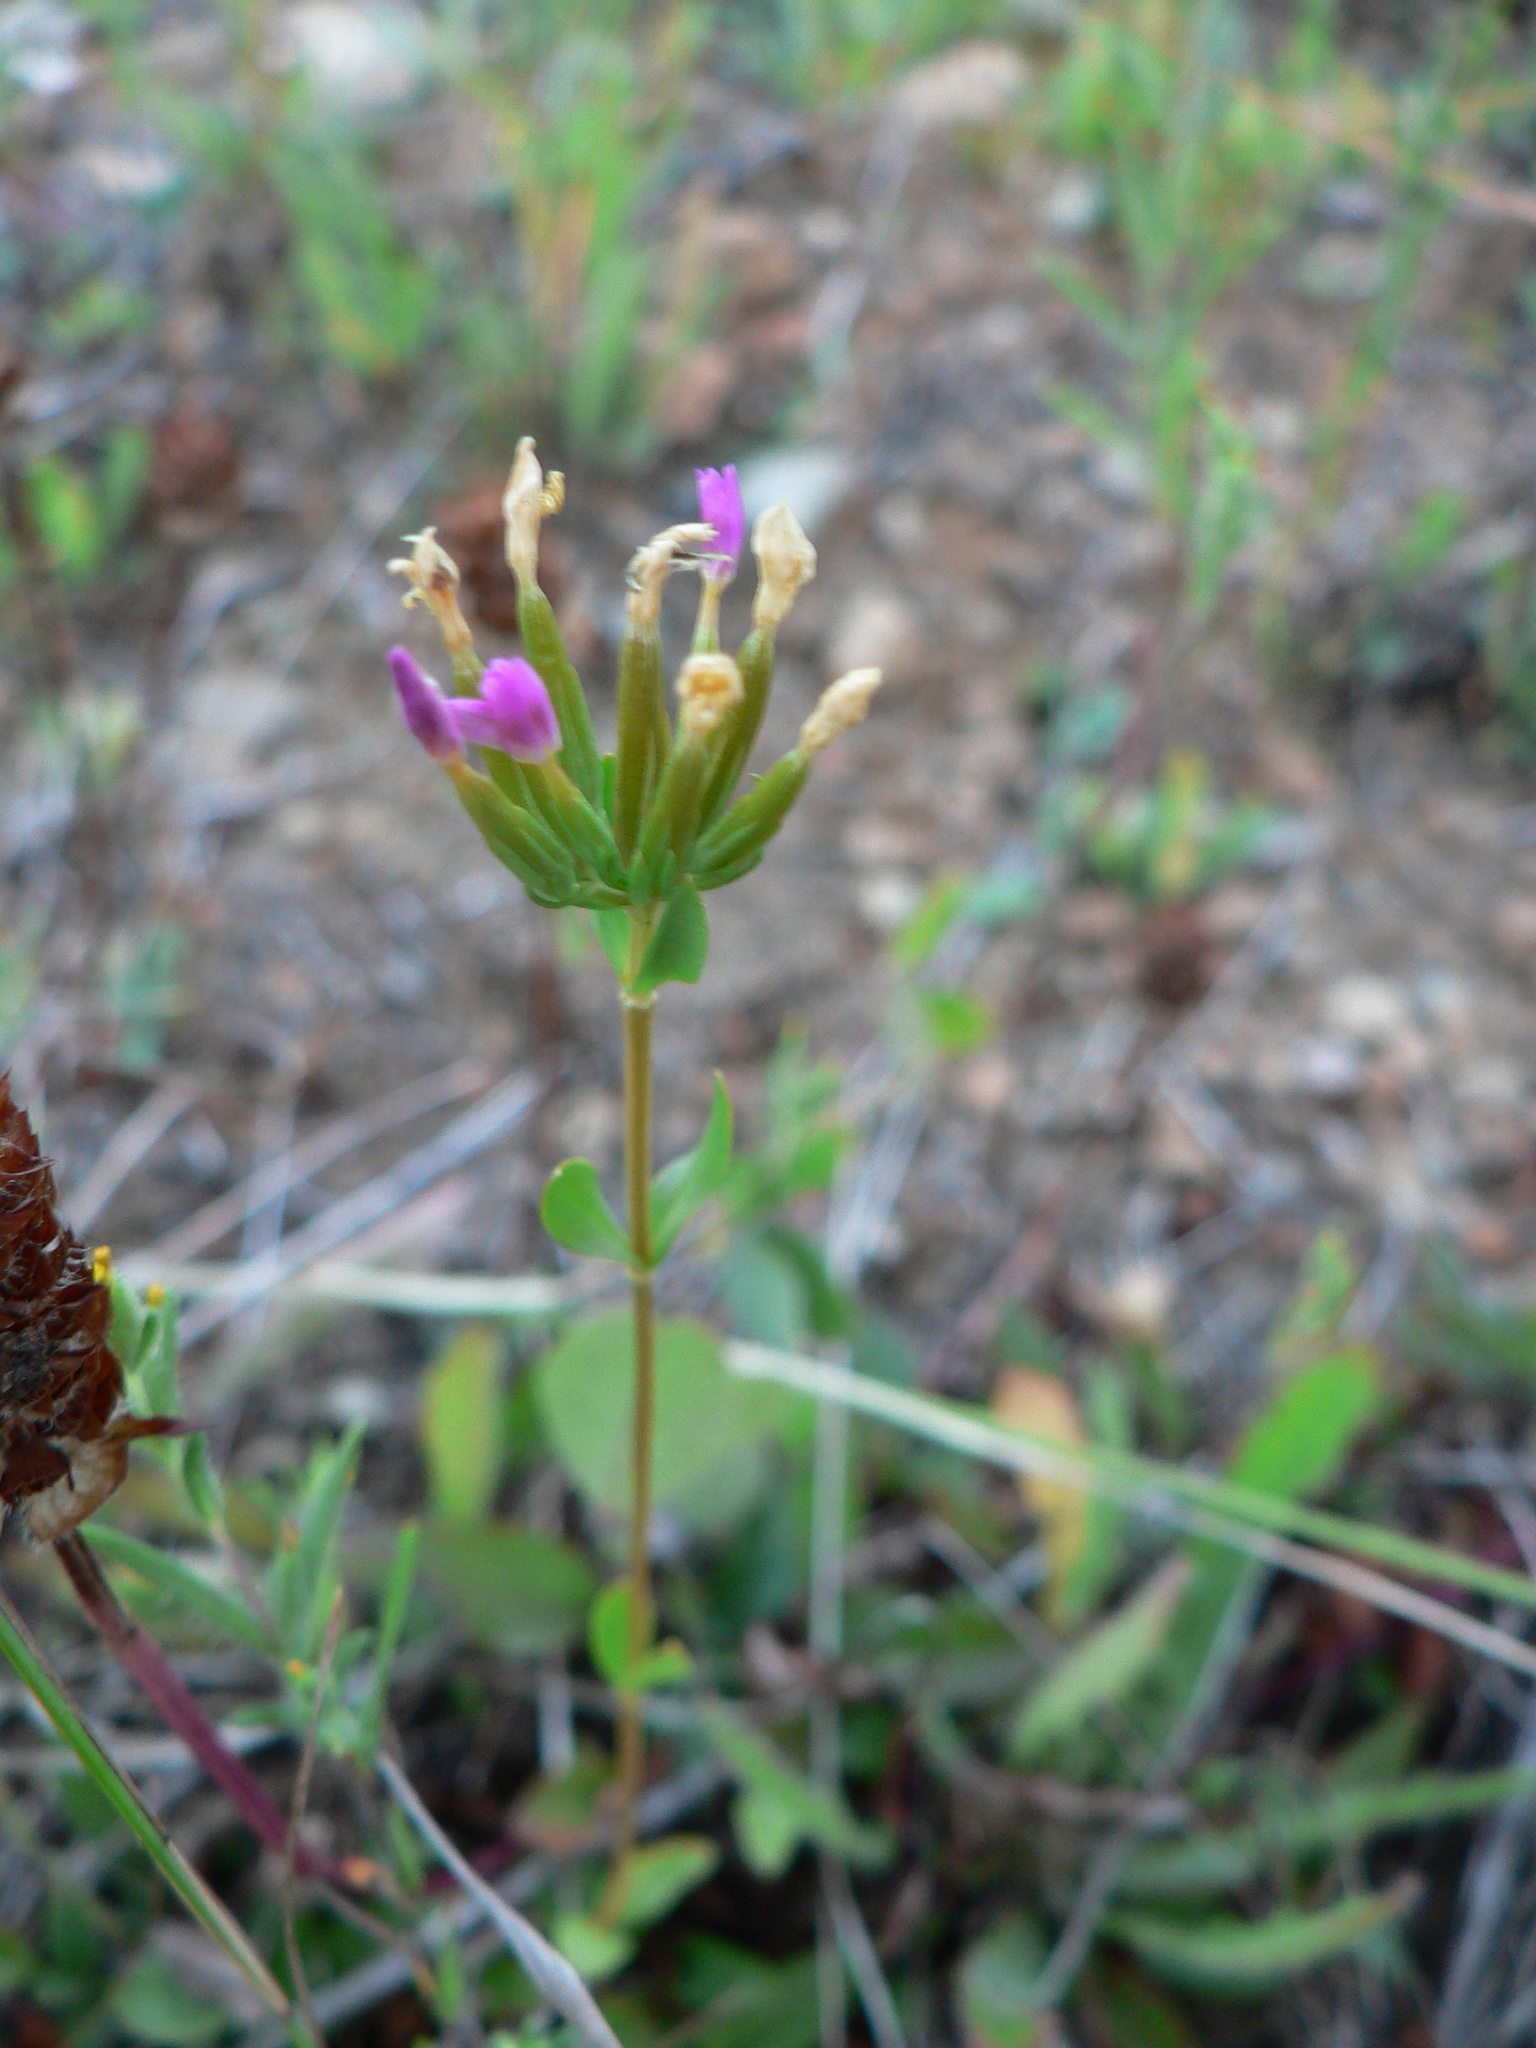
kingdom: Plantae
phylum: Tracheophyta
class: Magnoliopsida
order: Gentianales
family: Gentianaceae
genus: Centaurium
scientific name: Centaurium erythraea
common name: Common centaury
